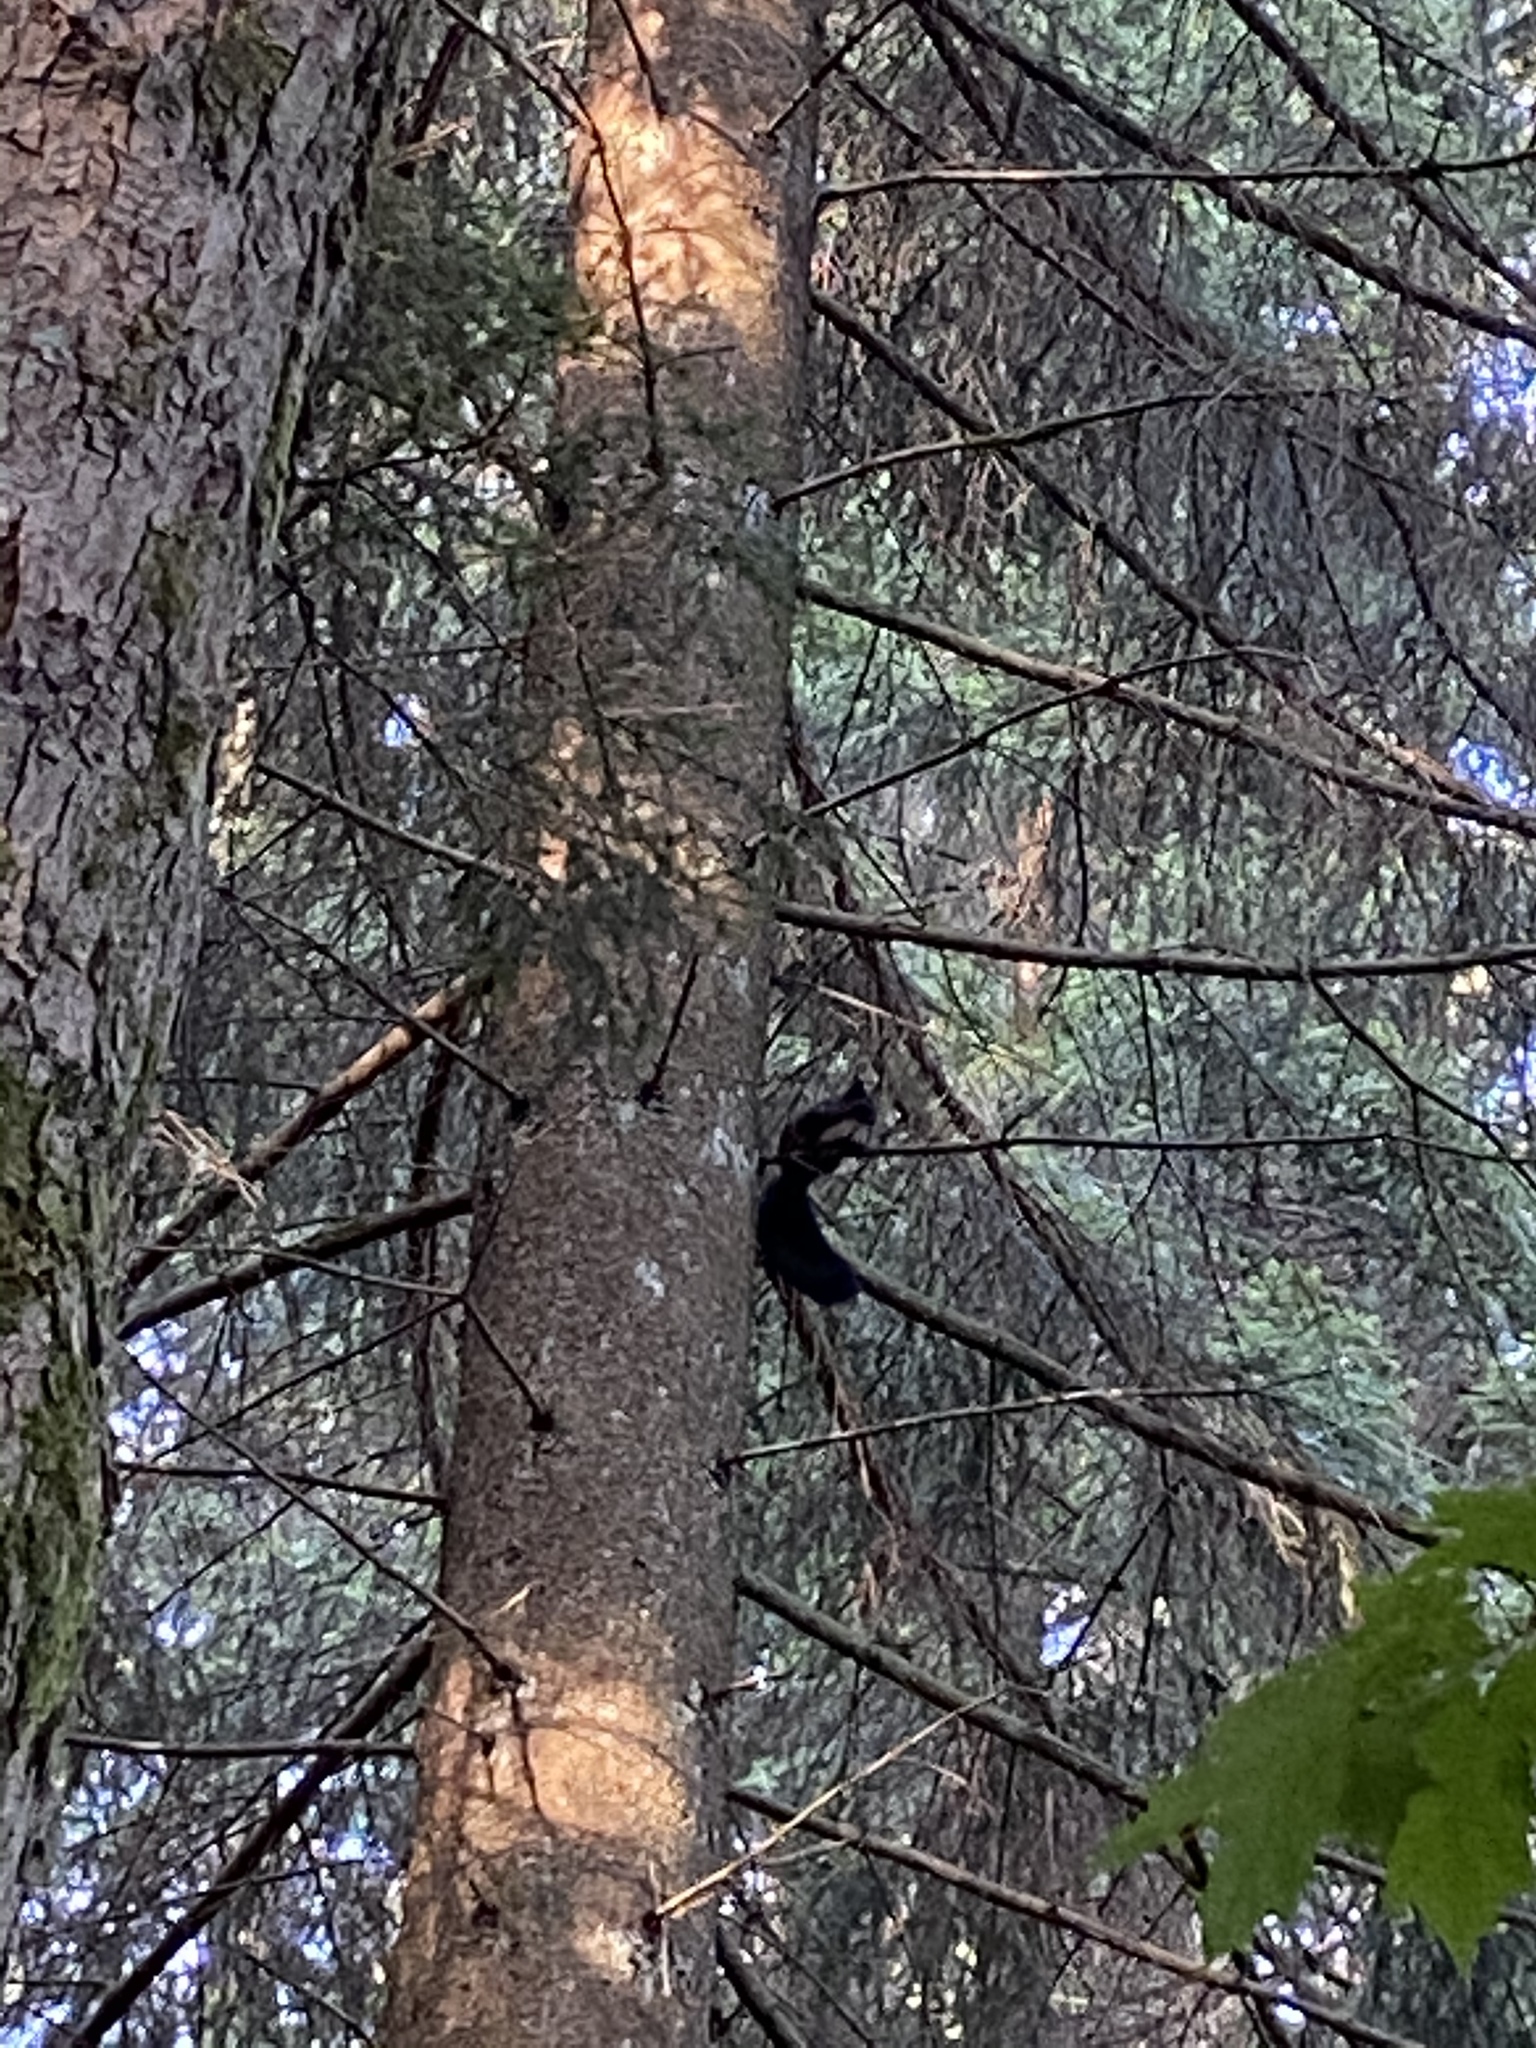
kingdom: Animalia
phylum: Chordata
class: Mammalia
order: Rodentia
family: Sciuridae
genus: Sciurus
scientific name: Sciurus vulgaris
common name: Eurasian red squirrel
